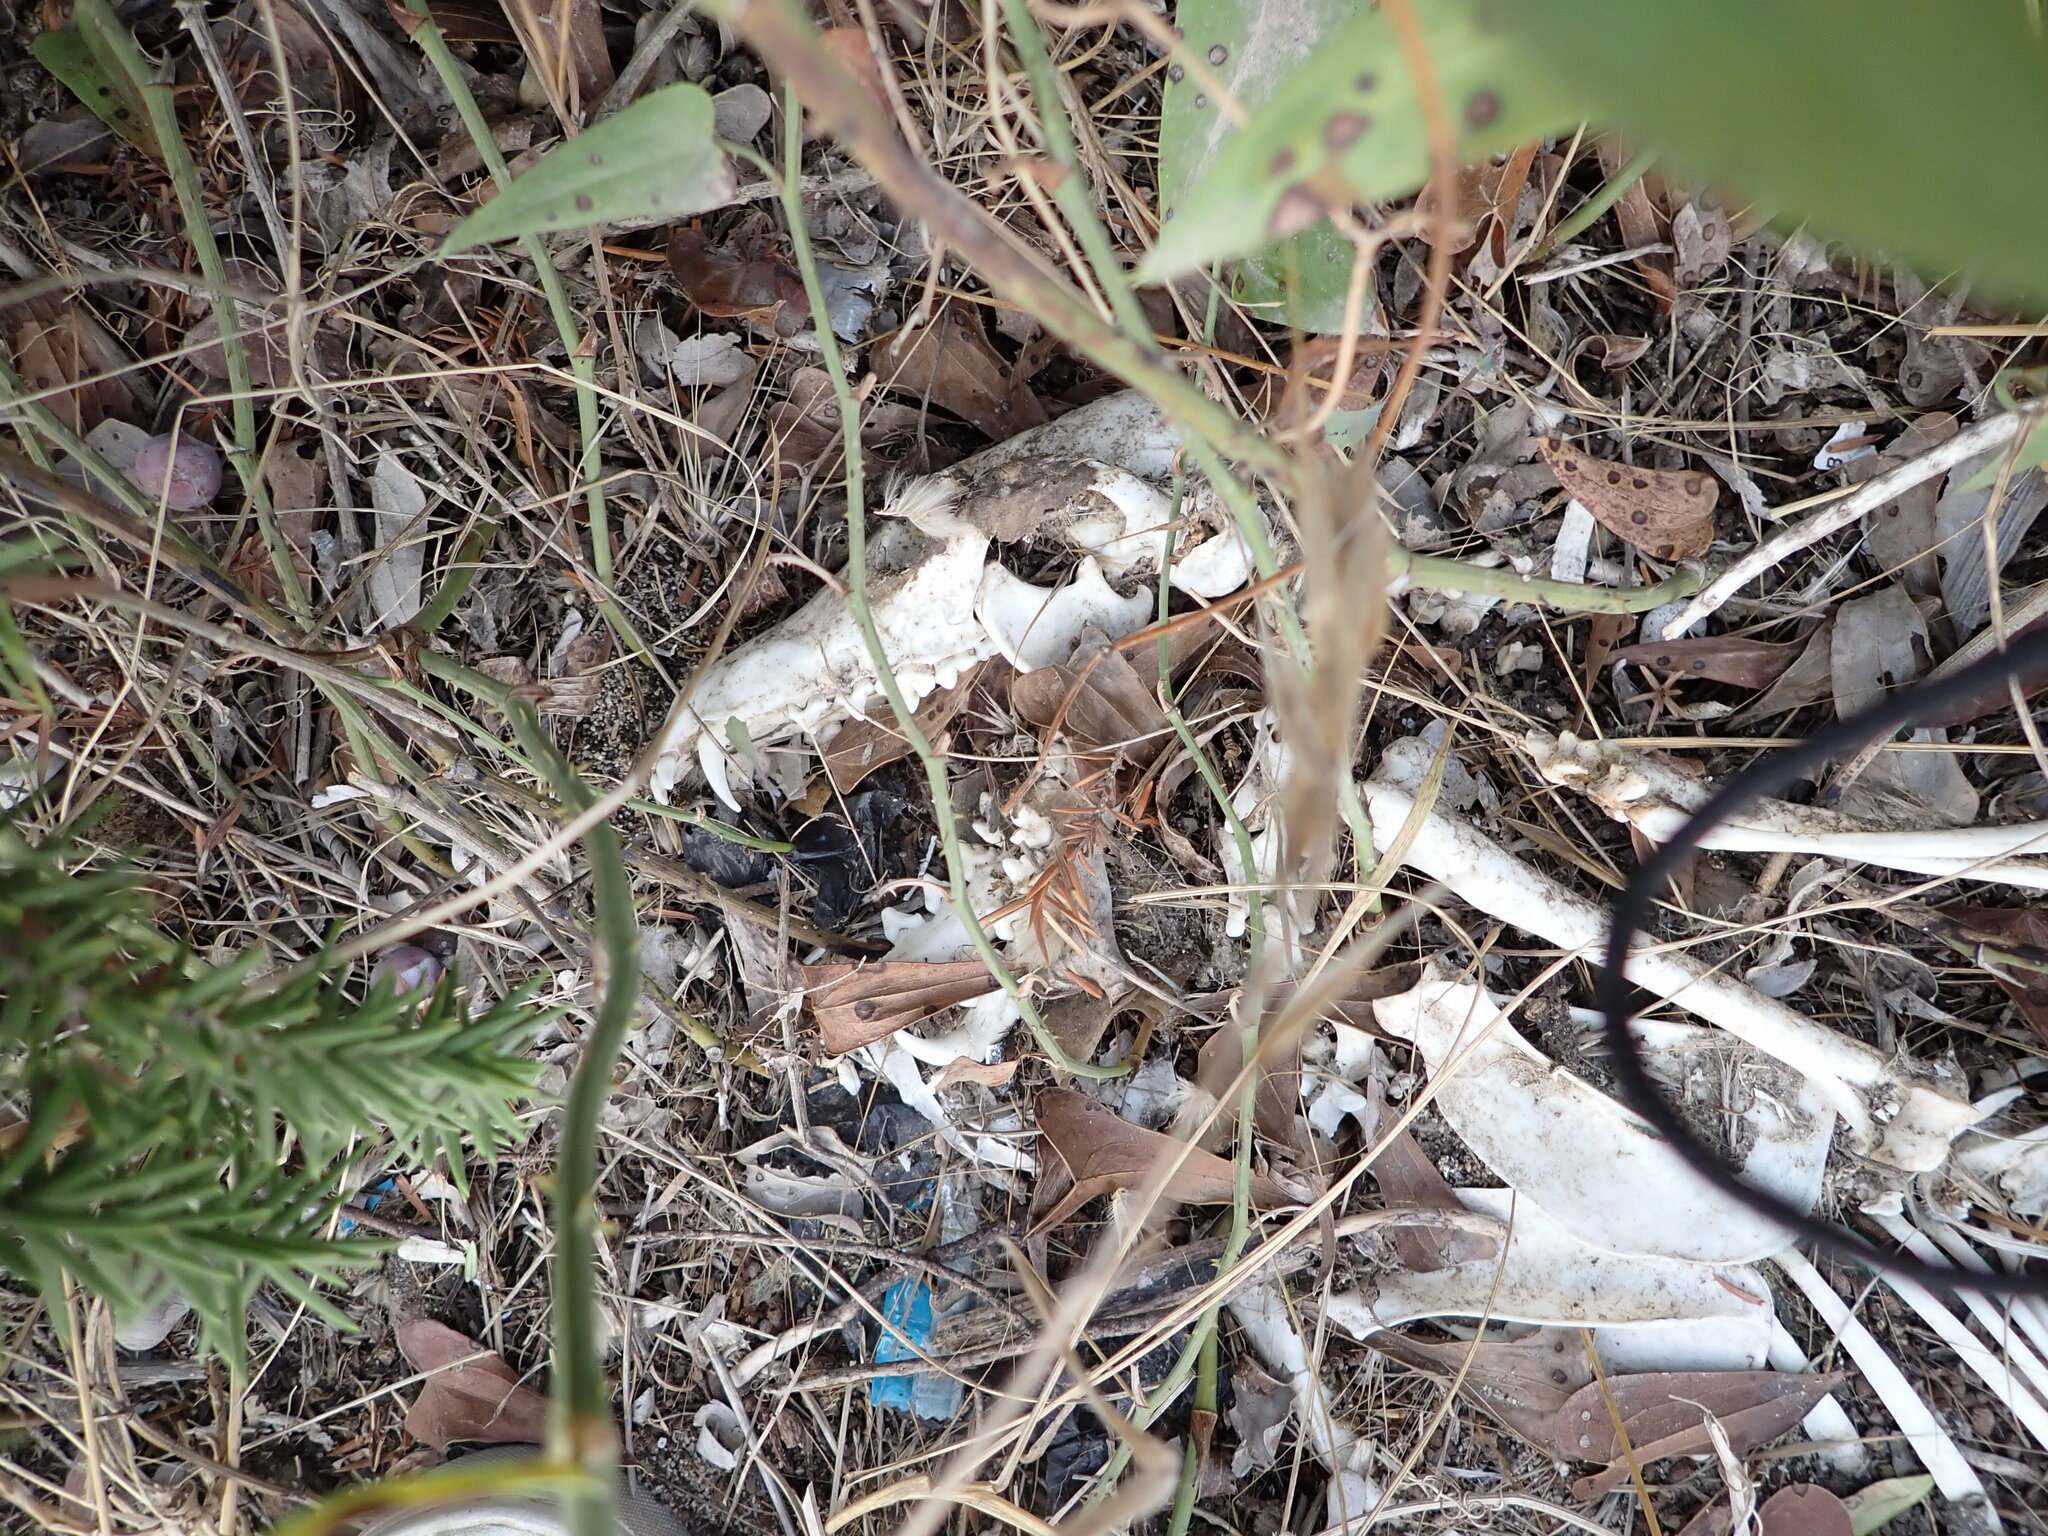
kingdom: Animalia
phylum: Chordata
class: Mammalia
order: Carnivora
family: Canidae
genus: Vulpes
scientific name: Vulpes vulpes
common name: Red fox
